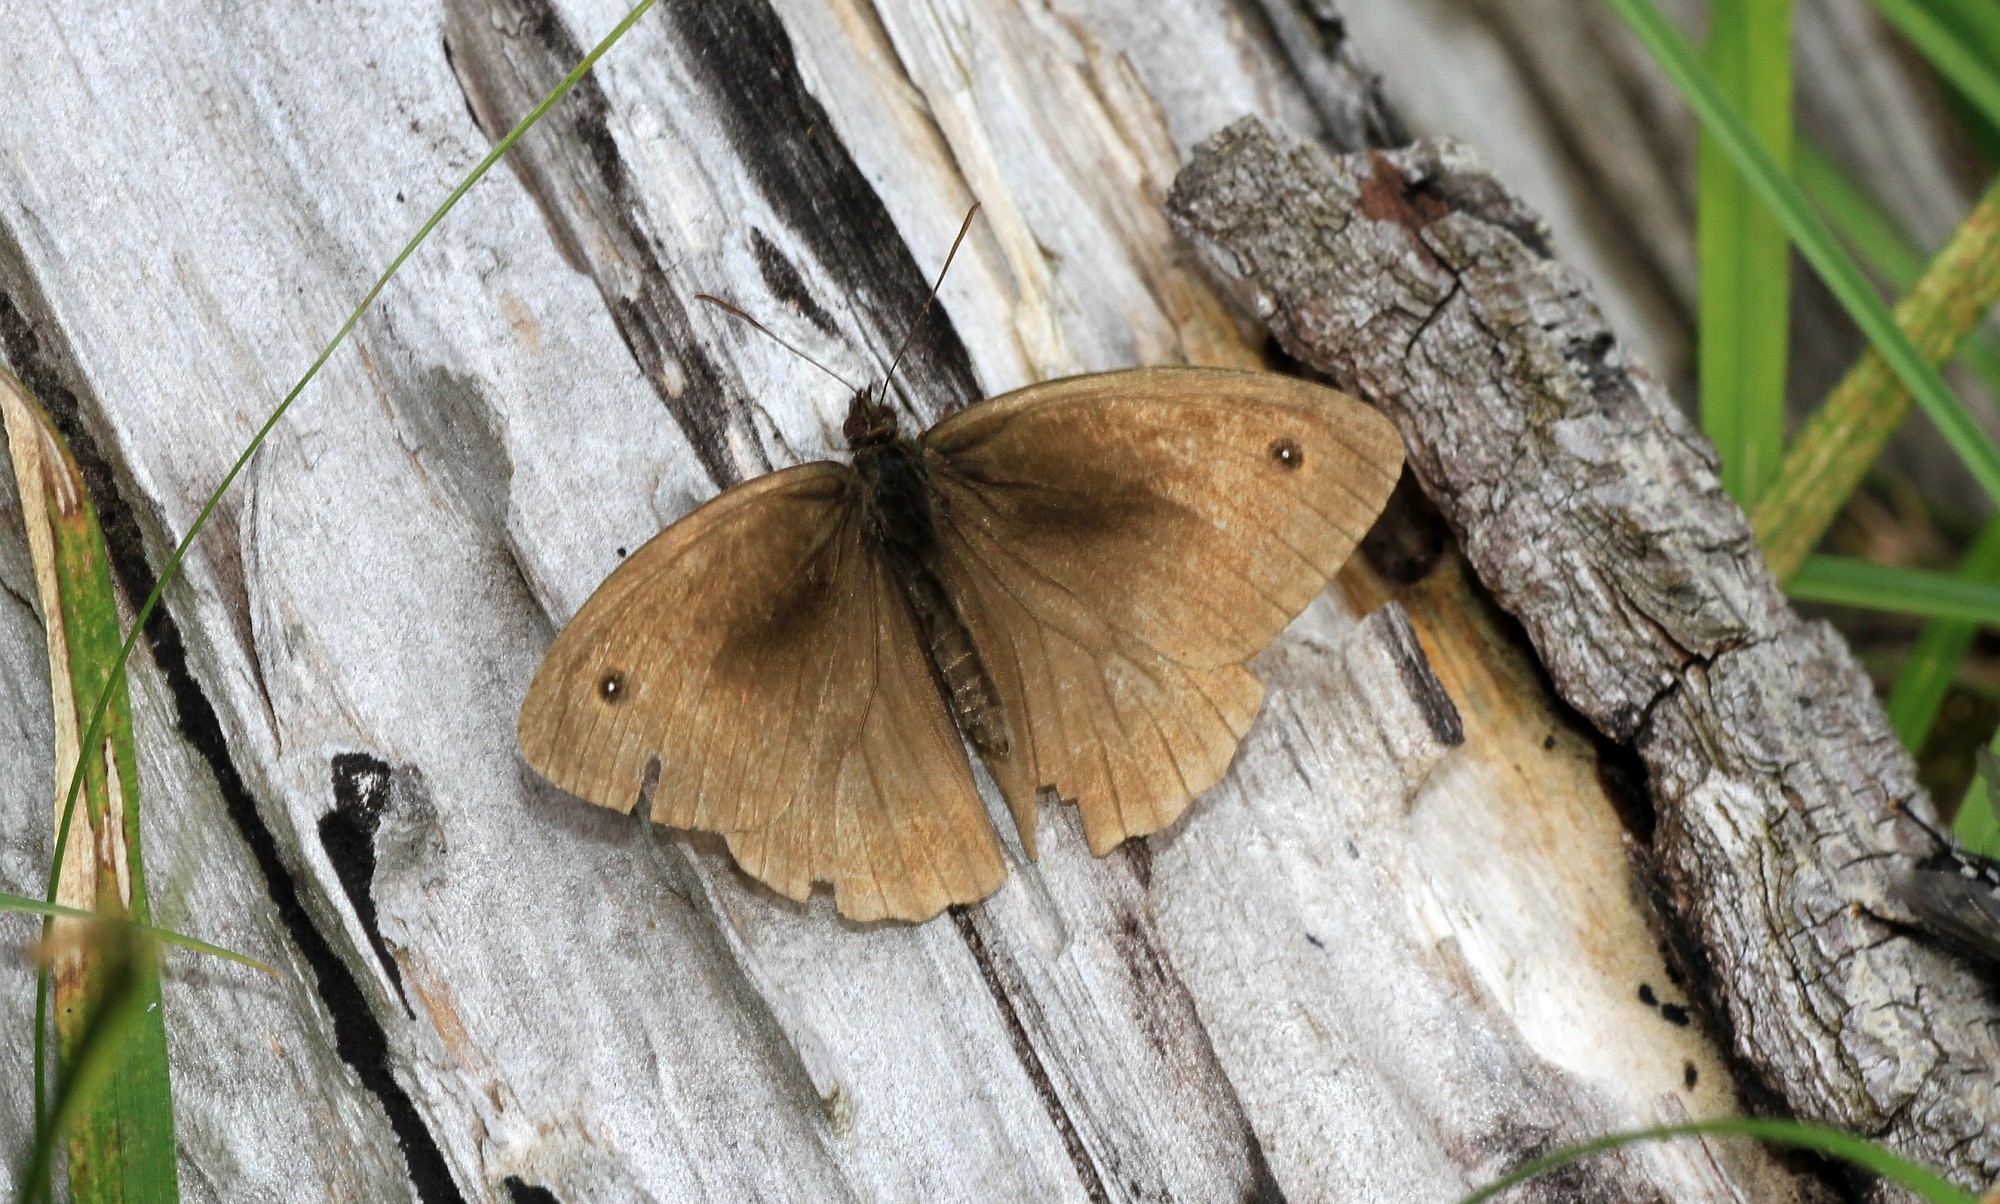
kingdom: Animalia
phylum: Arthropoda
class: Insecta
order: Lepidoptera
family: Nymphalidae
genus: Maniola
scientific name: Maniola jurtina
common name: Meadow brown
